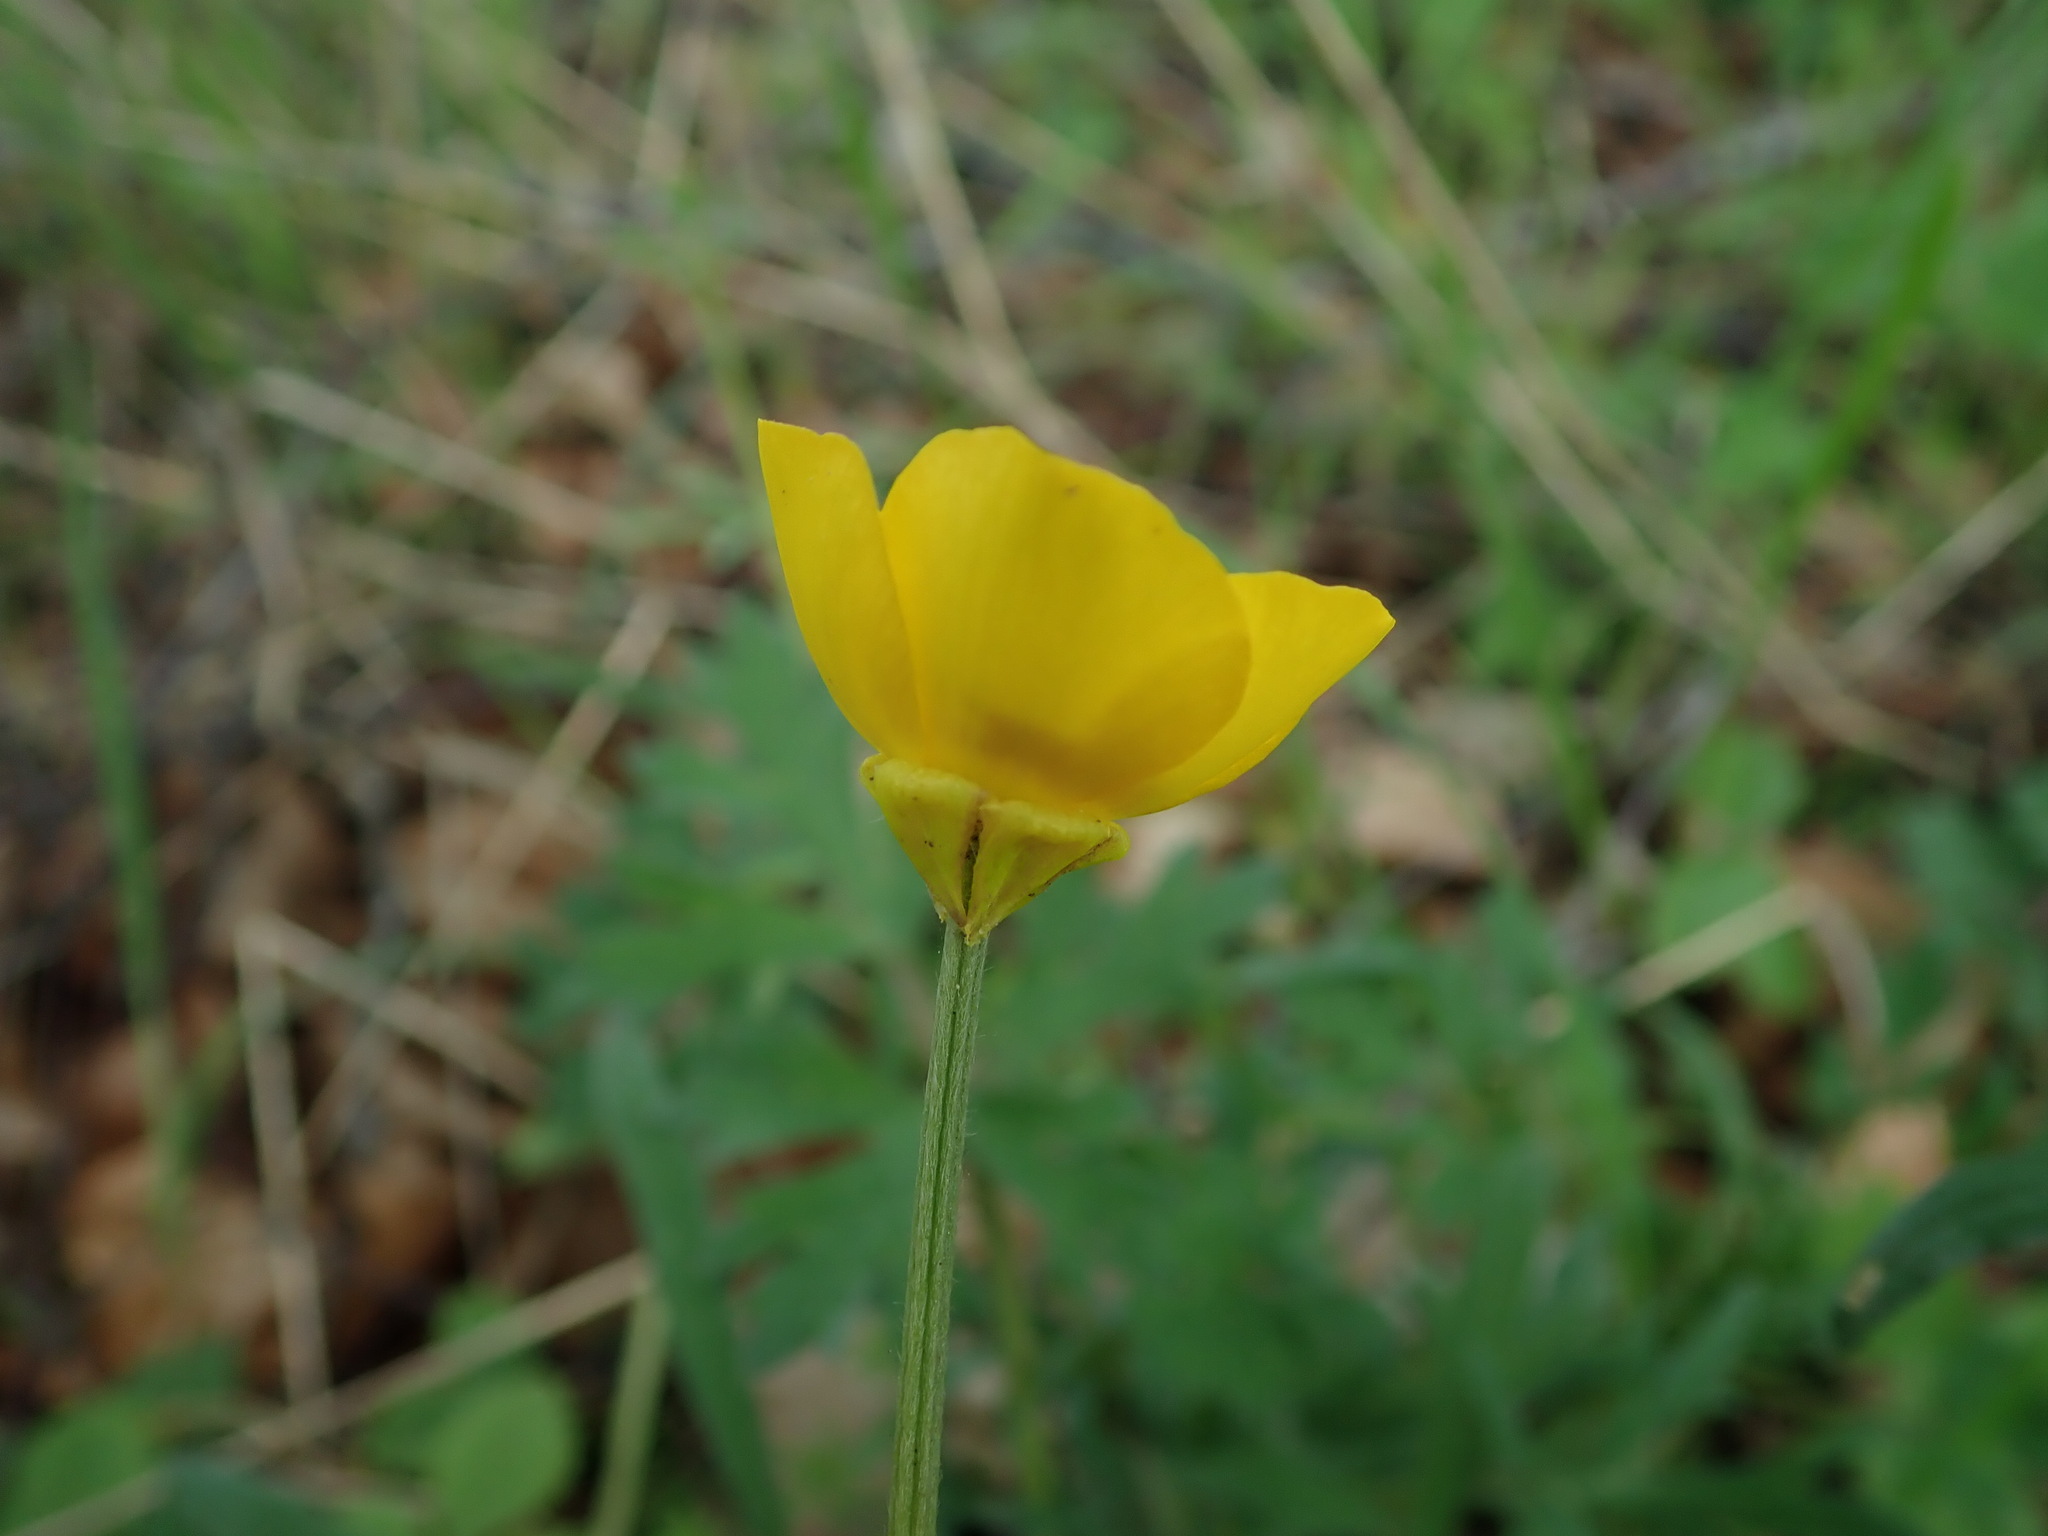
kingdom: Plantae
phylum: Tracheophyta
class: Magnoliopsida
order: Ranunculales
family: Ranunculaceae
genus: Ranunculus
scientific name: Ranunculus bulbosus
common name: Bulbous buttercup
